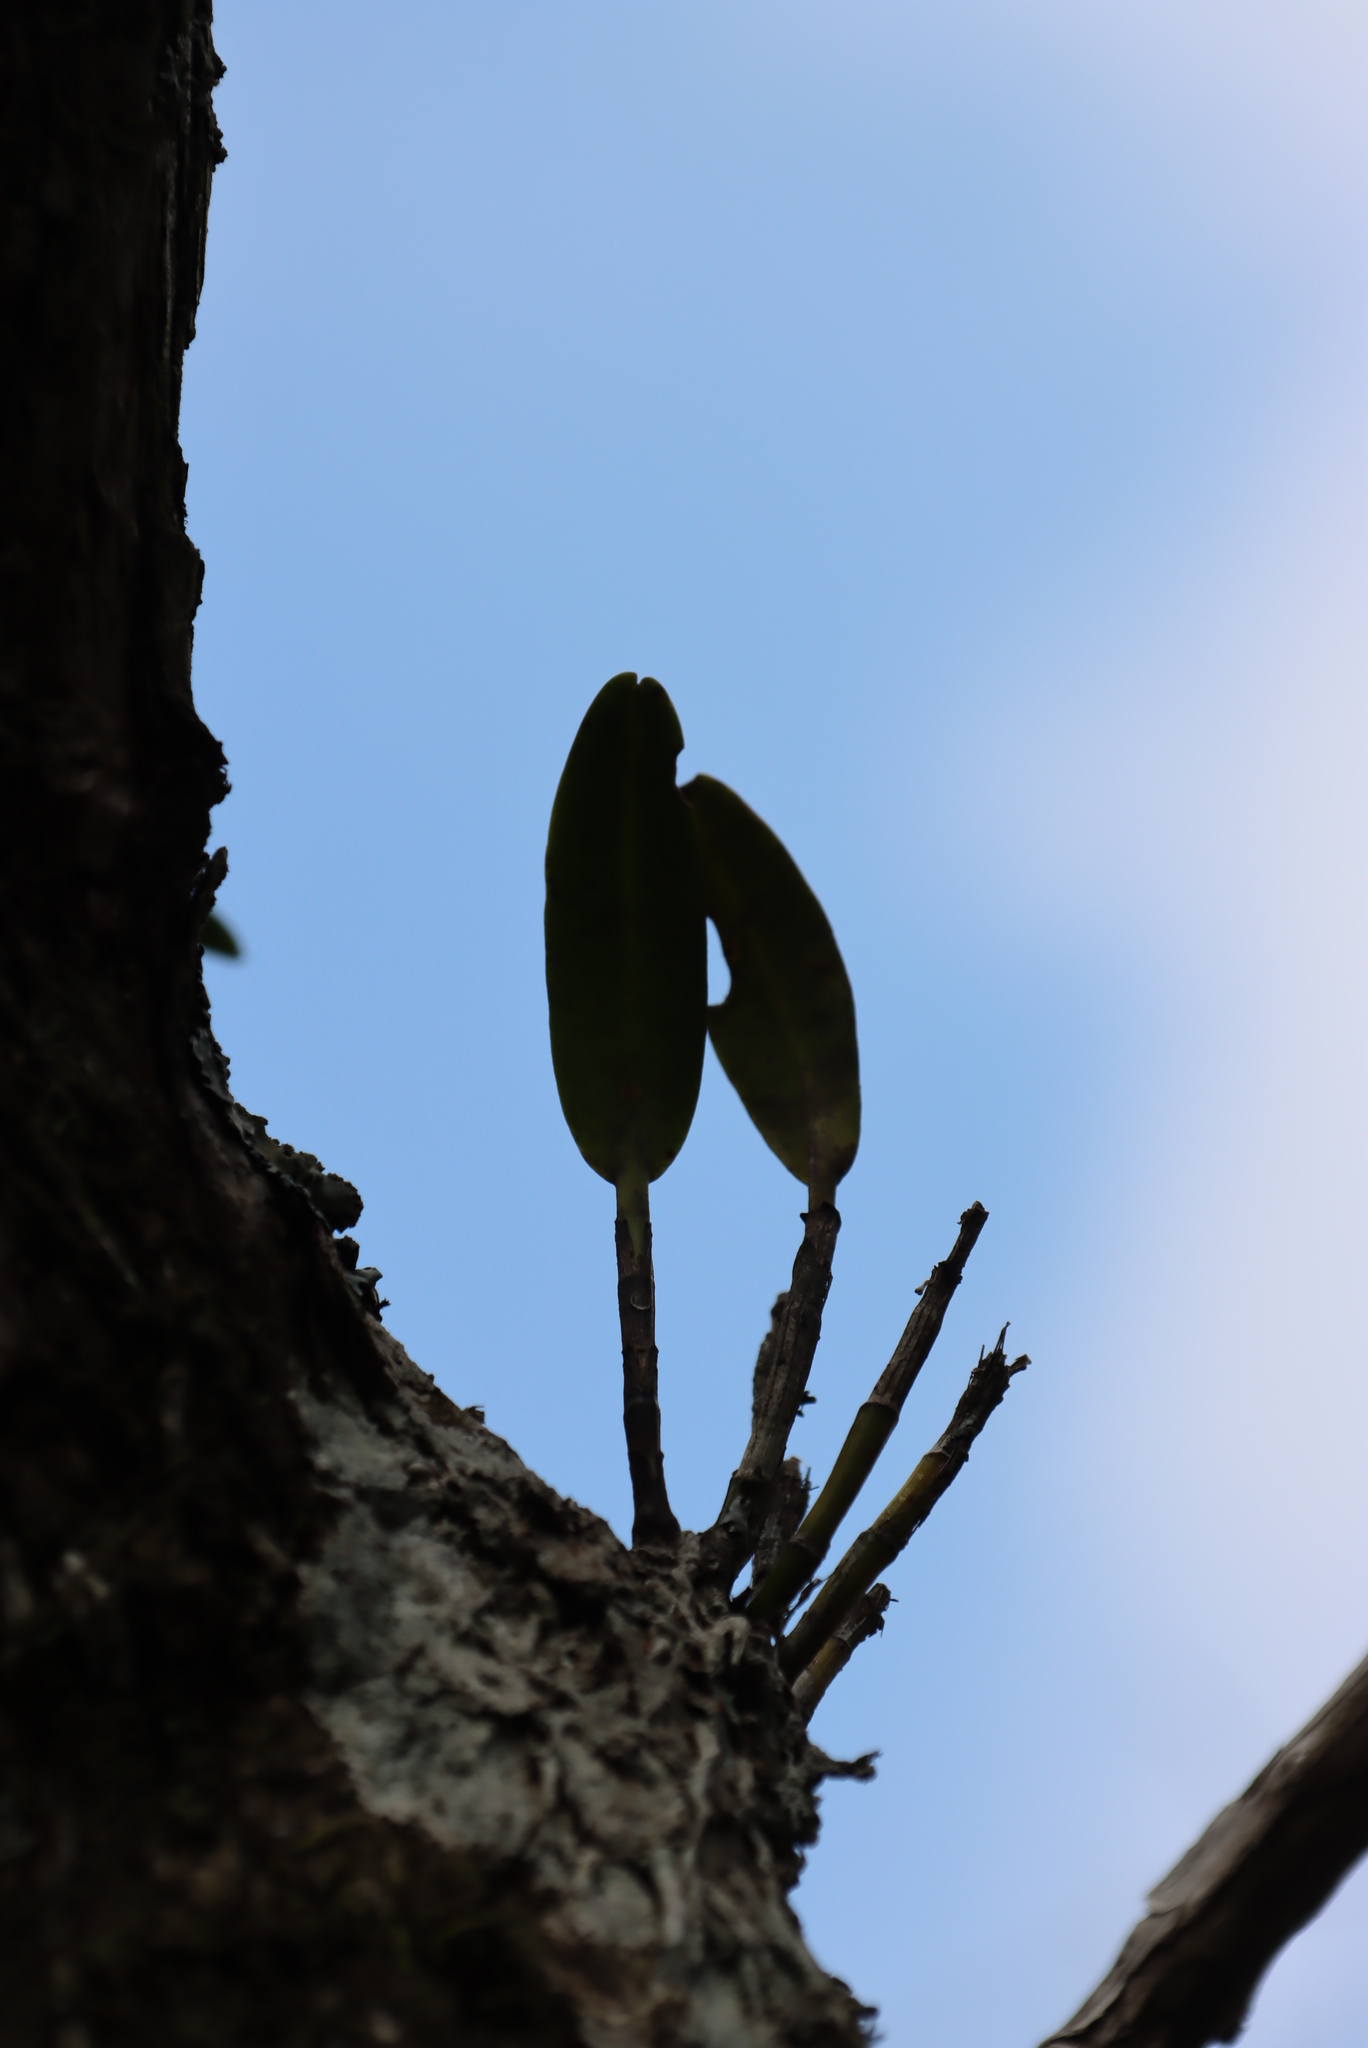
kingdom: Plantae
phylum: Tracheophyta
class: Liliopsida
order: Asparagales
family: Orchidaceae
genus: Polystachya
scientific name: Polystachya transvaalensis
